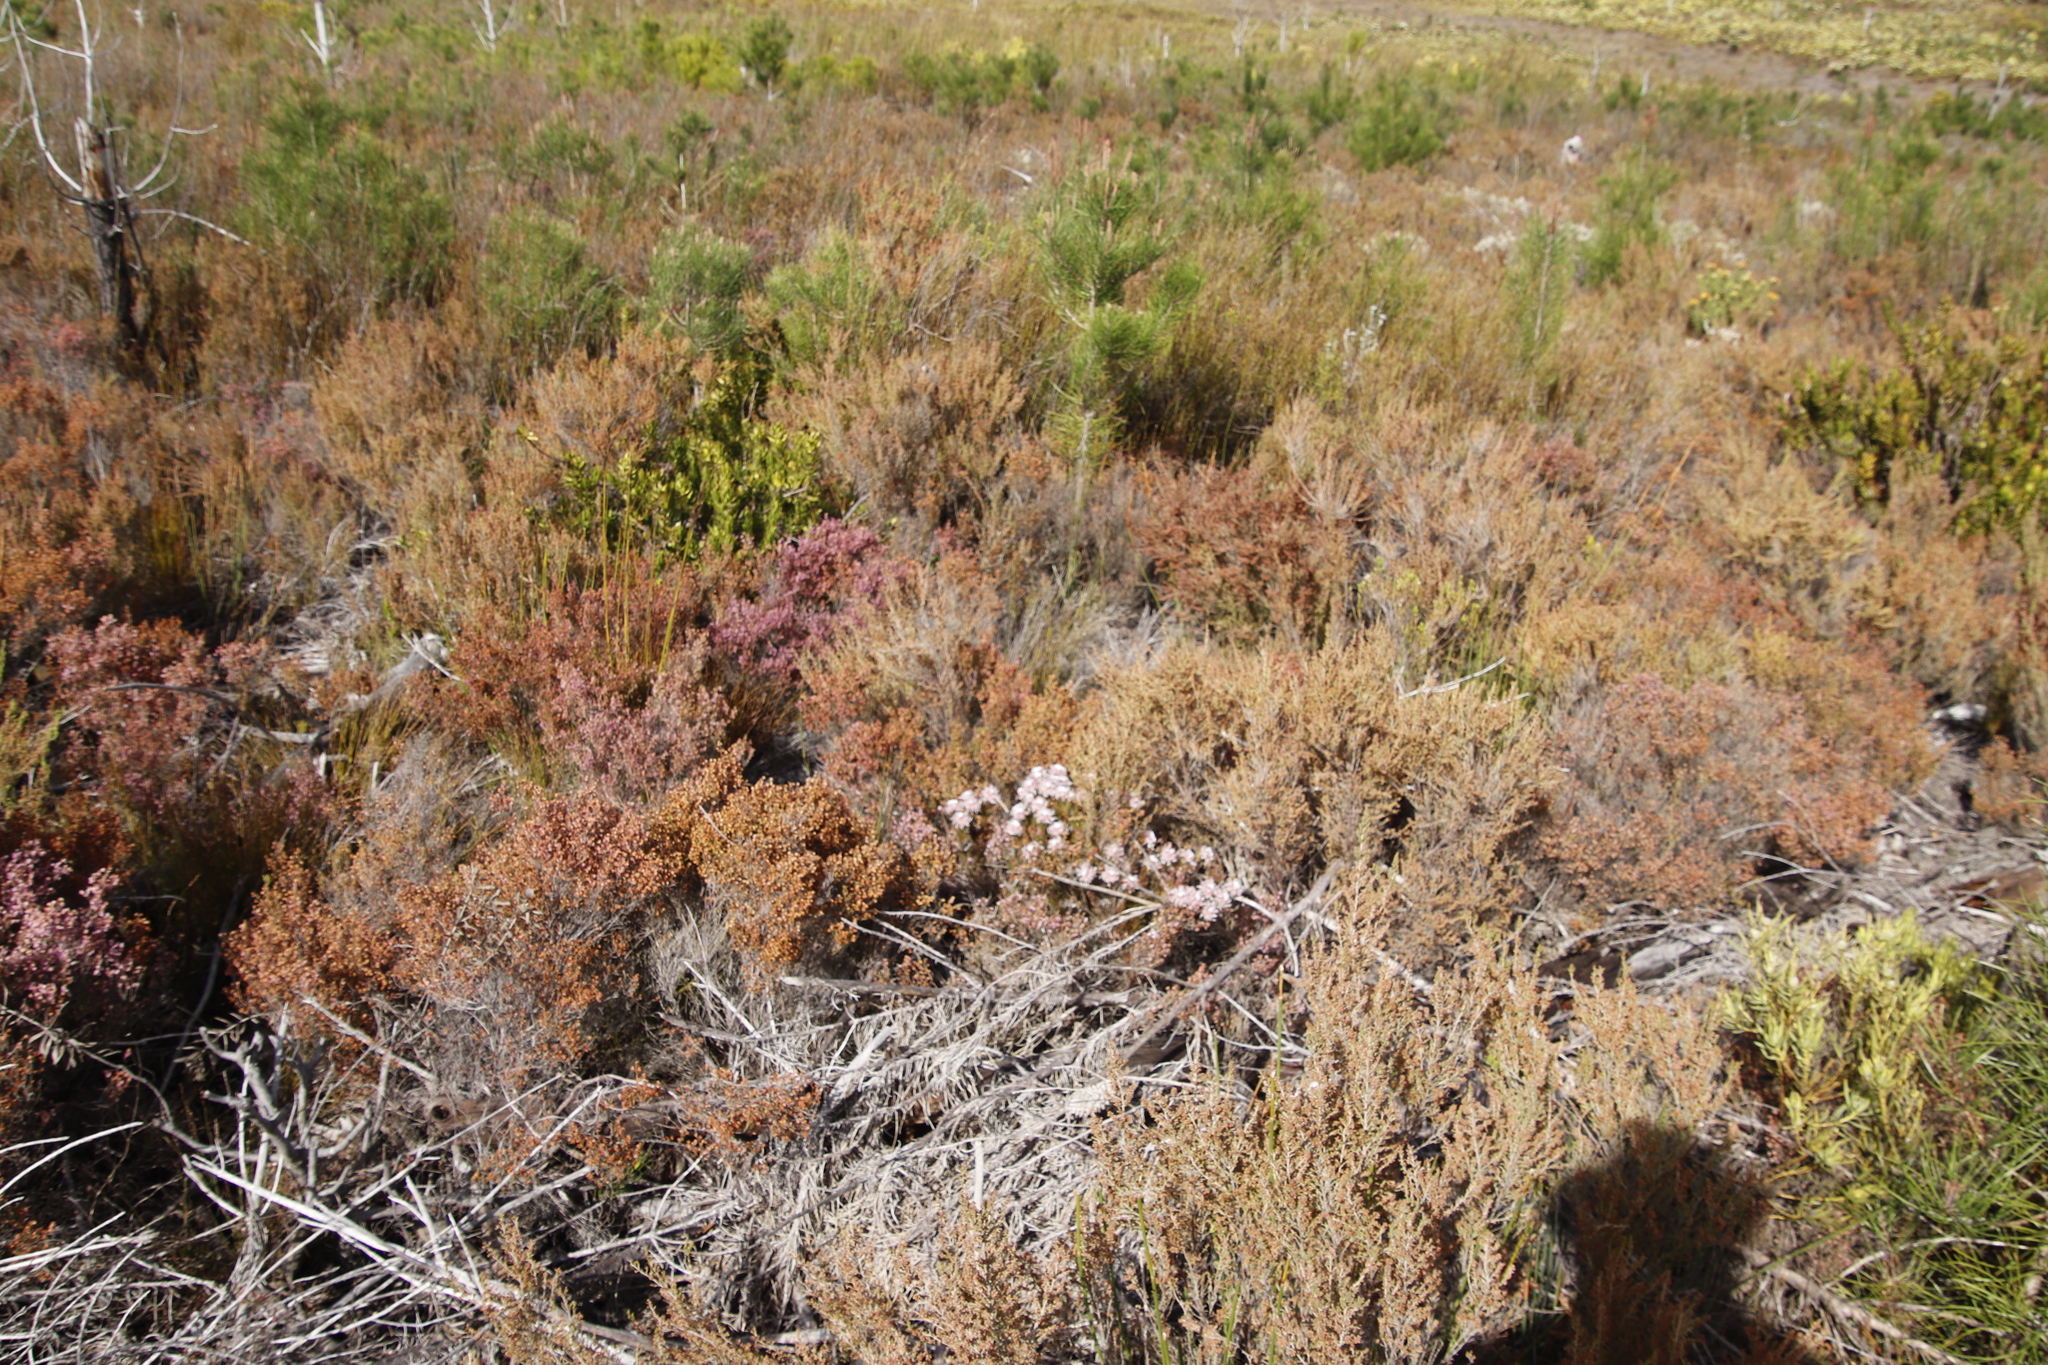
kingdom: Plantae
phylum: Tracheophyta
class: Magnoliopsida
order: Proteales
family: Proteaceae
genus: Serruria
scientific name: Serruria rostellaris
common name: Remote spiderhead
